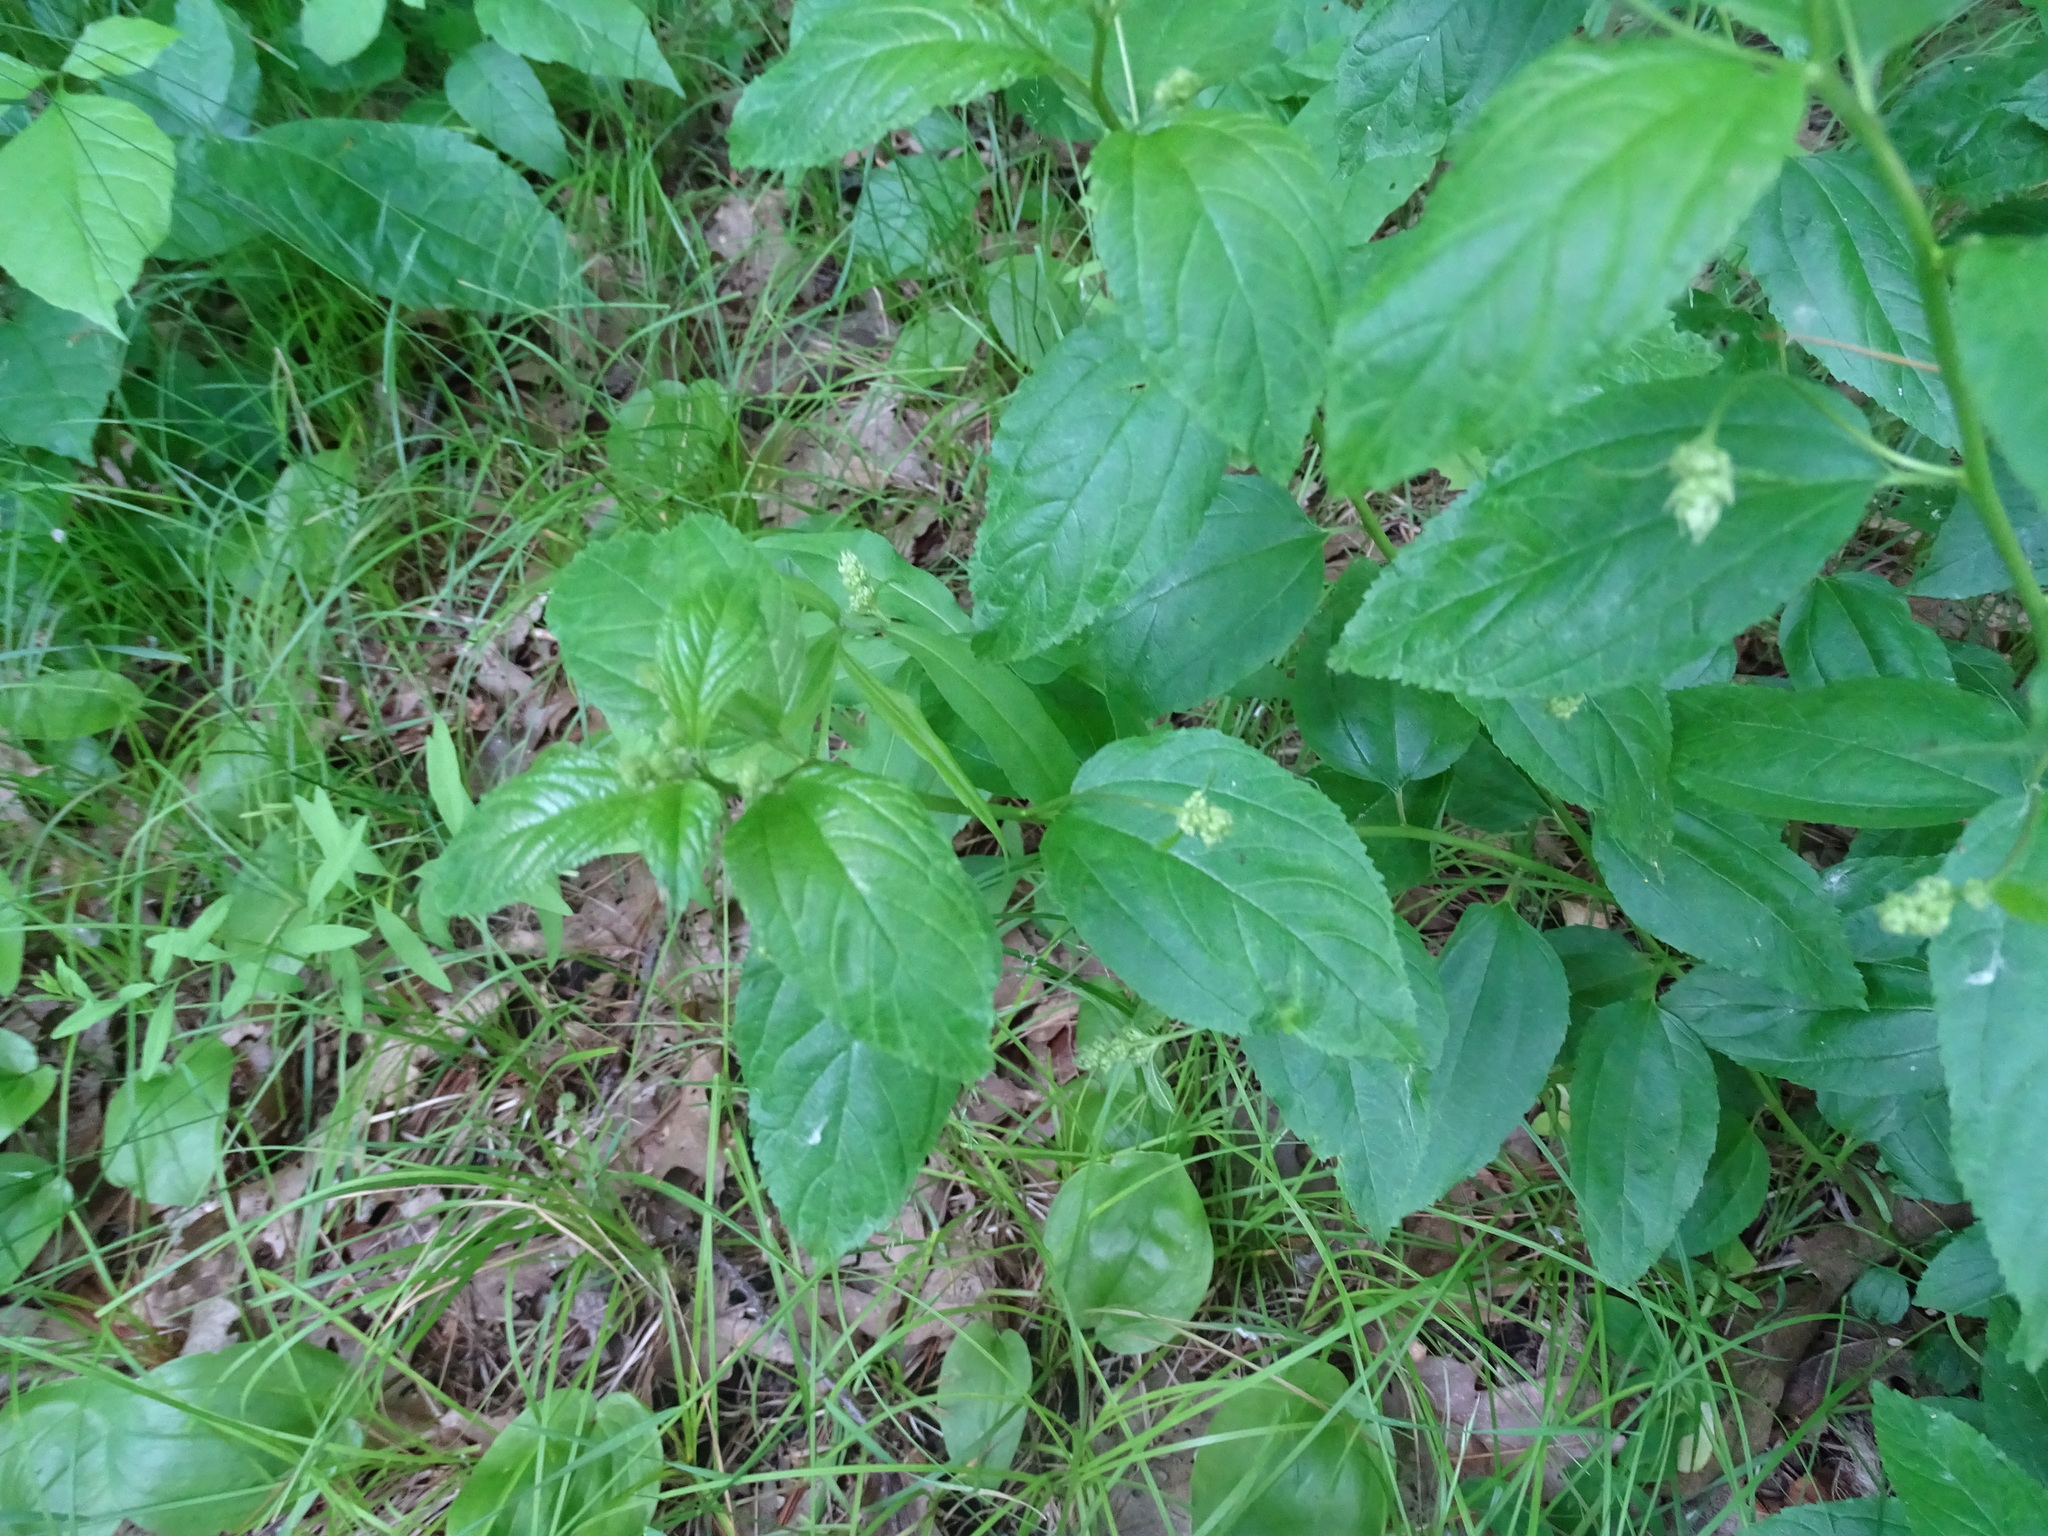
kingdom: Plantae
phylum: Tracheophyta
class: Magnoliopsida
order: Rosales
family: Rhamnaceae
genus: Ceanothus
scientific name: Ceanothus americanus
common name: Redroot
